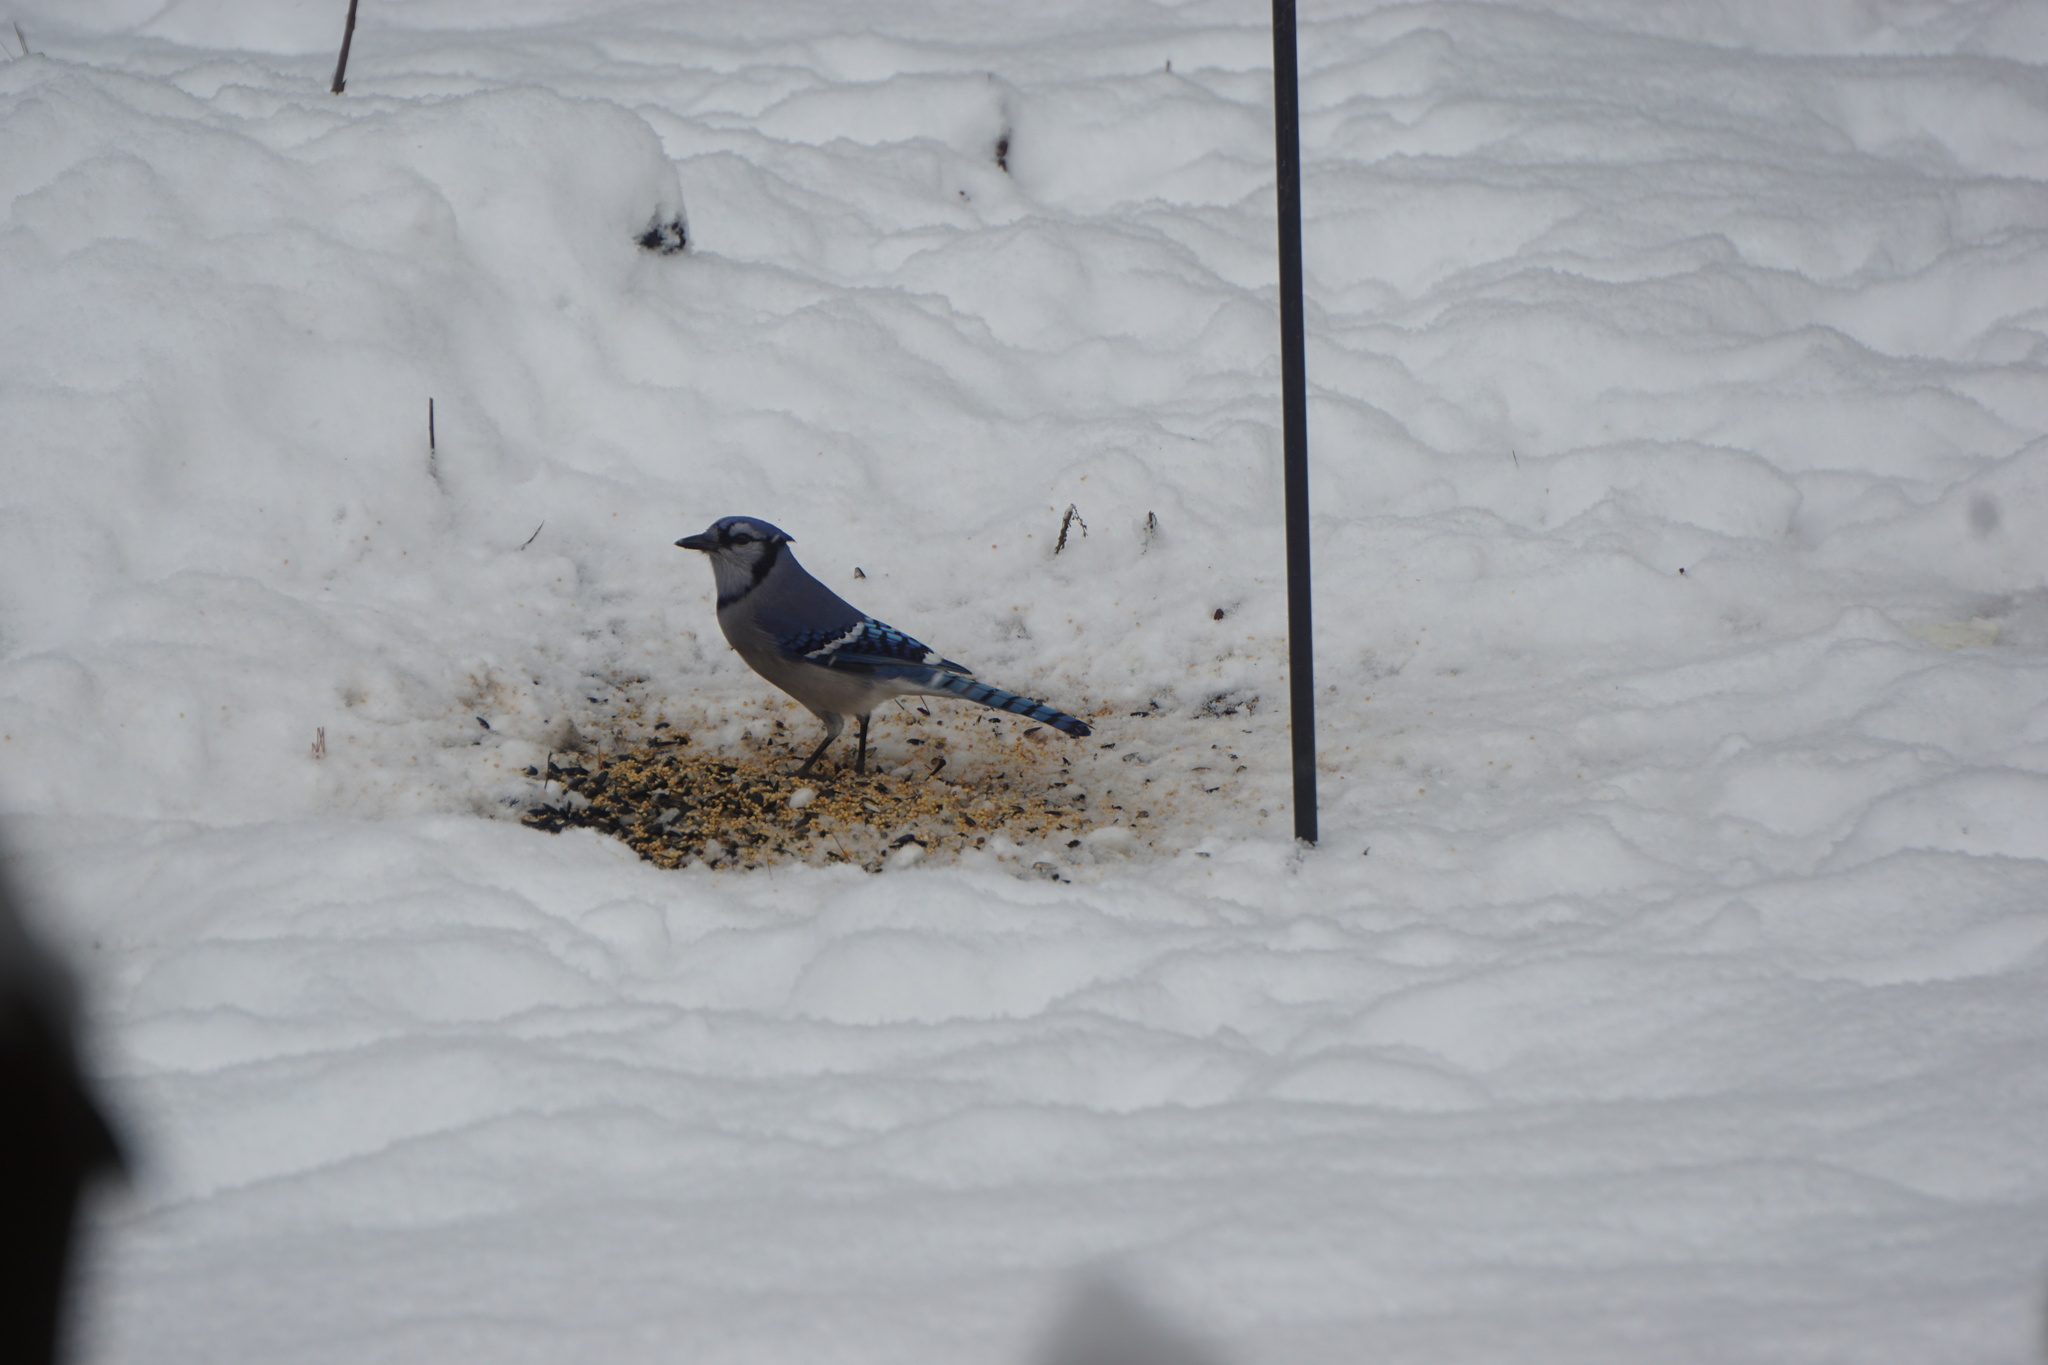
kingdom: Animalia
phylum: Chordata
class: Aves
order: Passeriformes
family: Corvidae
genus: Cyanocitta
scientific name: Cyanocitta cristata
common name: Blue jay
